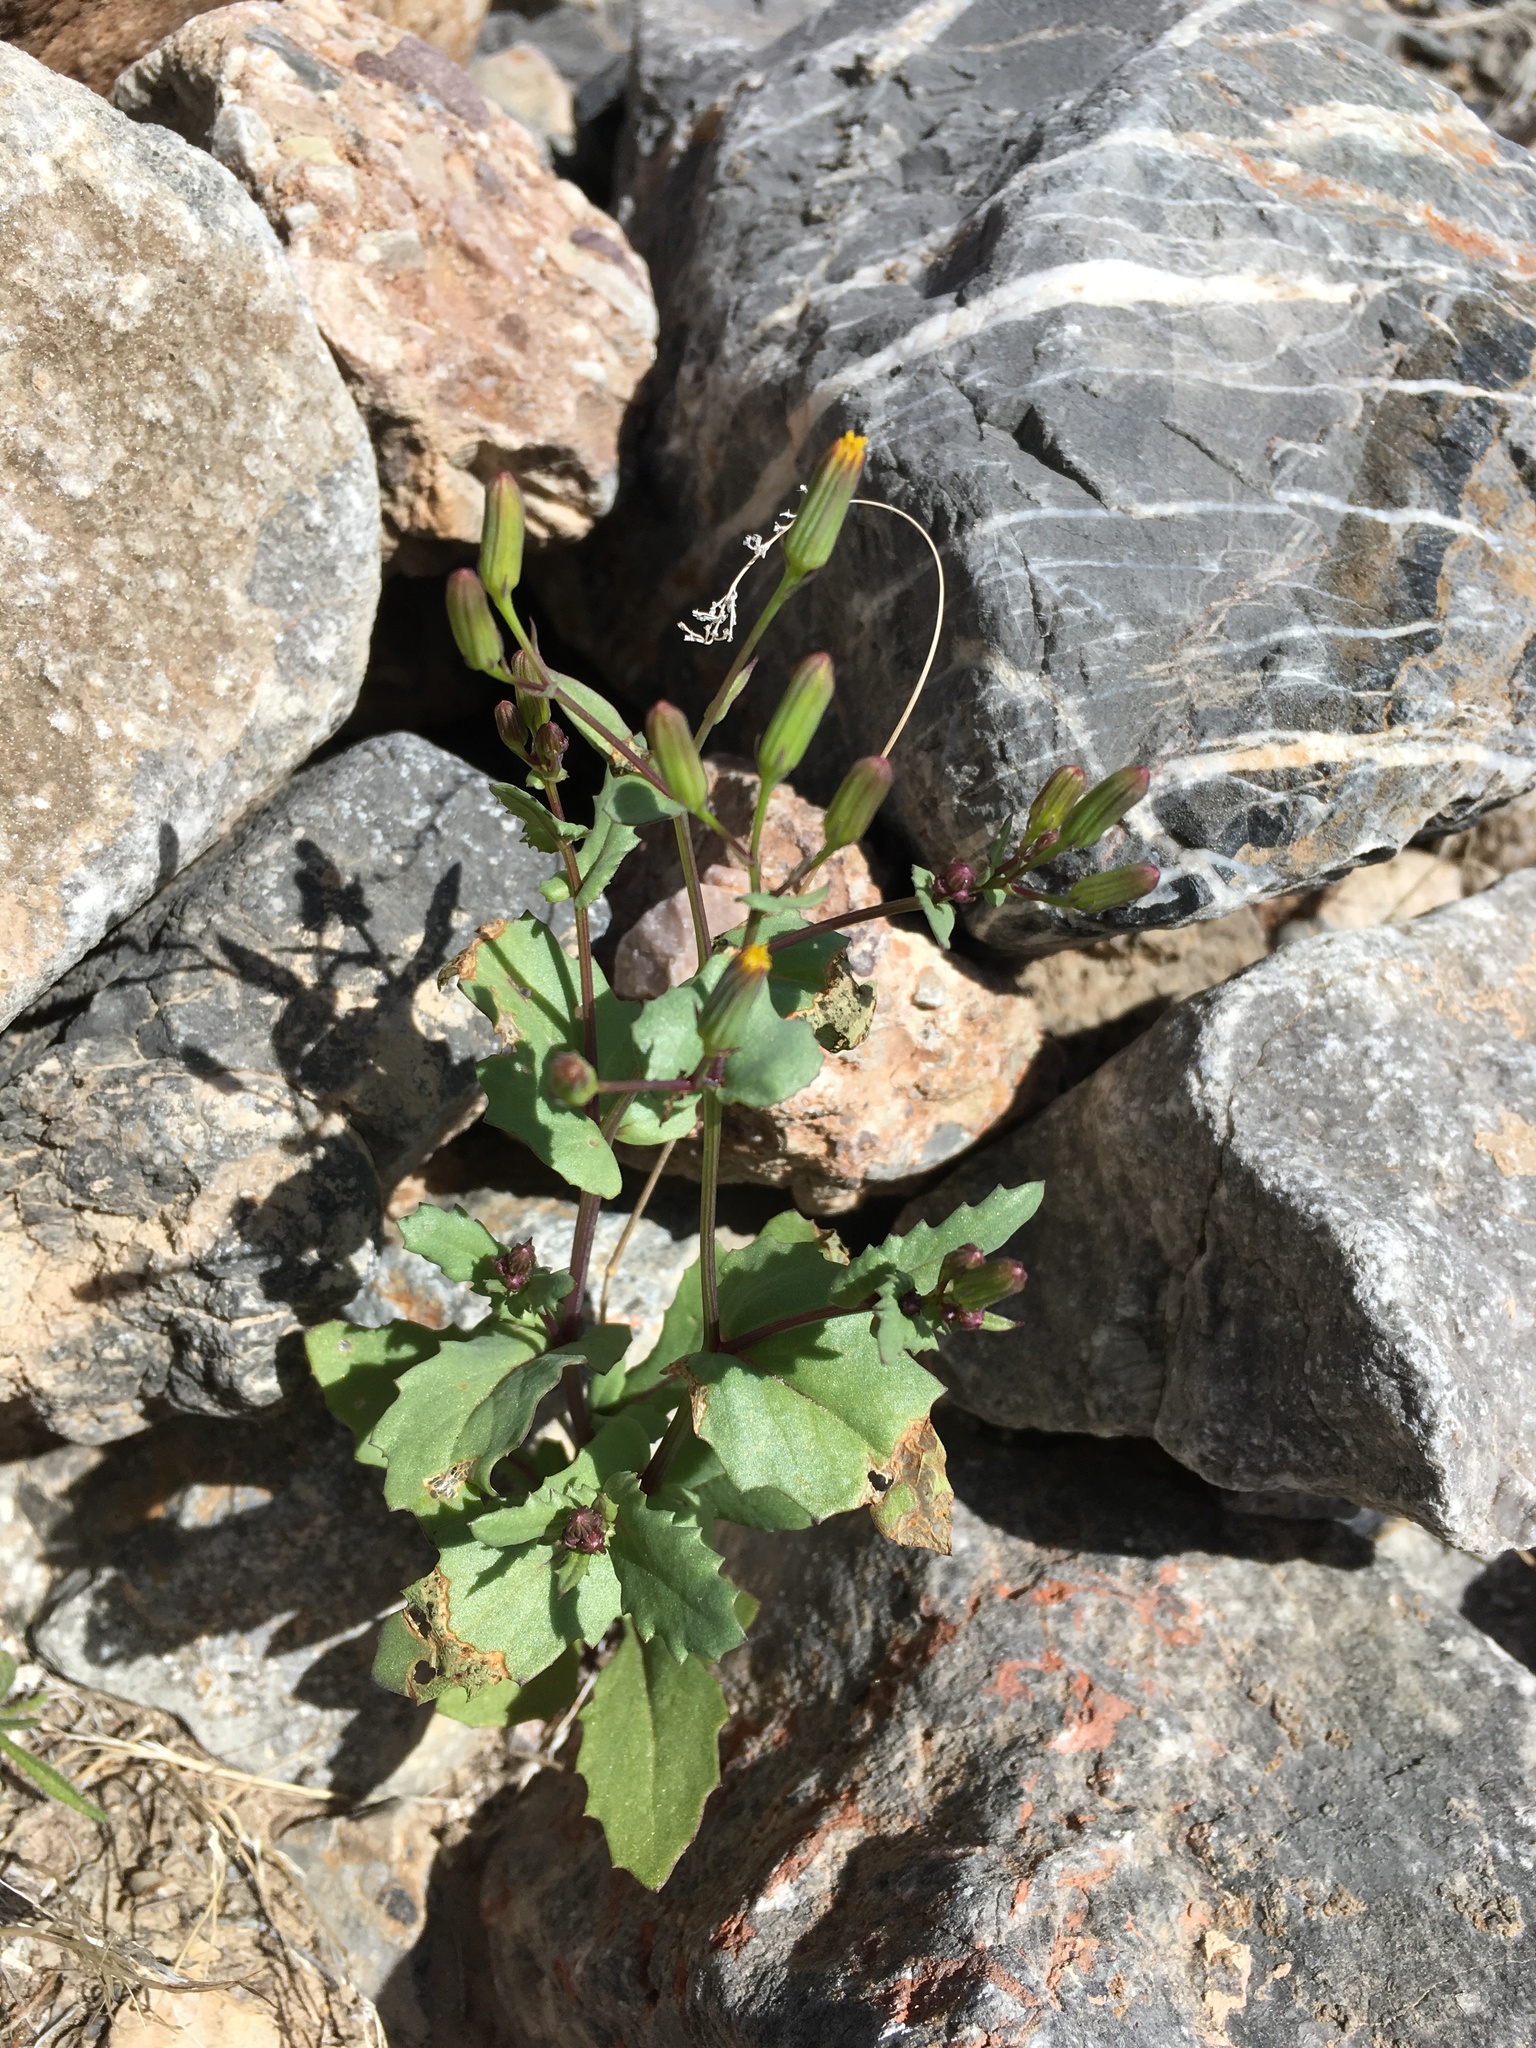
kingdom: Plantae
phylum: Tracheophyta
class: Magnoliopsida
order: Asterales
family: Asteraceae
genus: Senecio
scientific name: Senecio mohavensis
